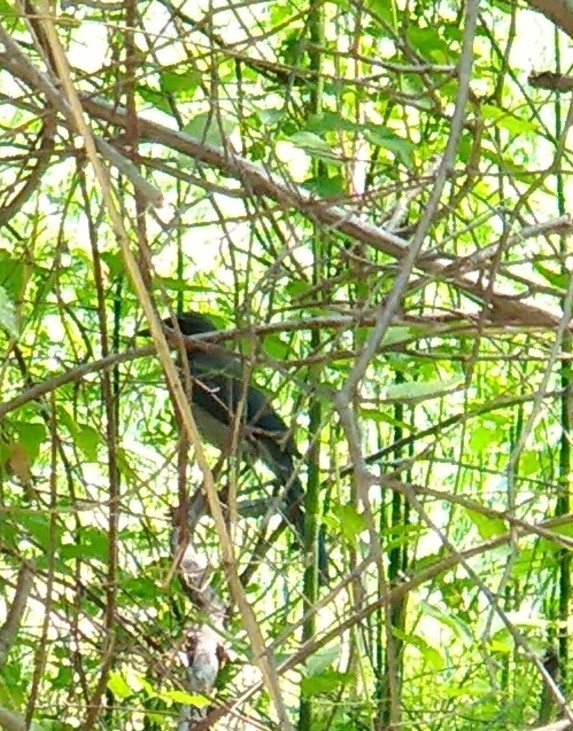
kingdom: Animalia
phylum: Chordata
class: Aves
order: Passeriformes
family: Corvidae
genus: Aphelocoma
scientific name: Aphelocoma woodhouseii
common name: Woodhouse's scrub-jay
